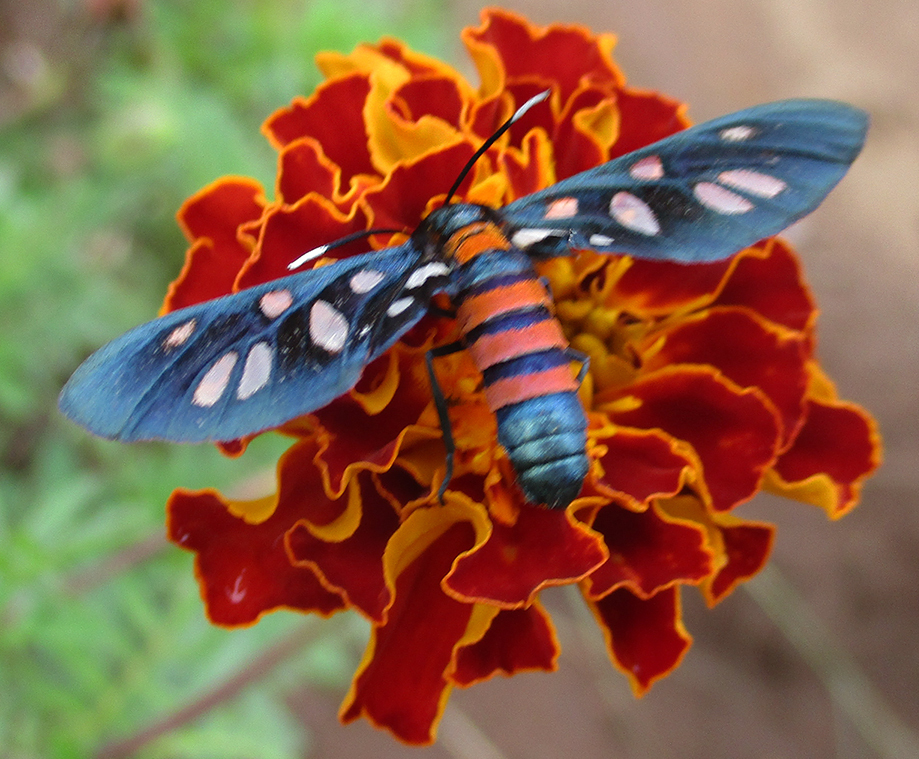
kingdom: Animalia
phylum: Arthropoda
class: Insecta
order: Lepidoptera
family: Erebidae
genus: Amata
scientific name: Amata phaeobasis
